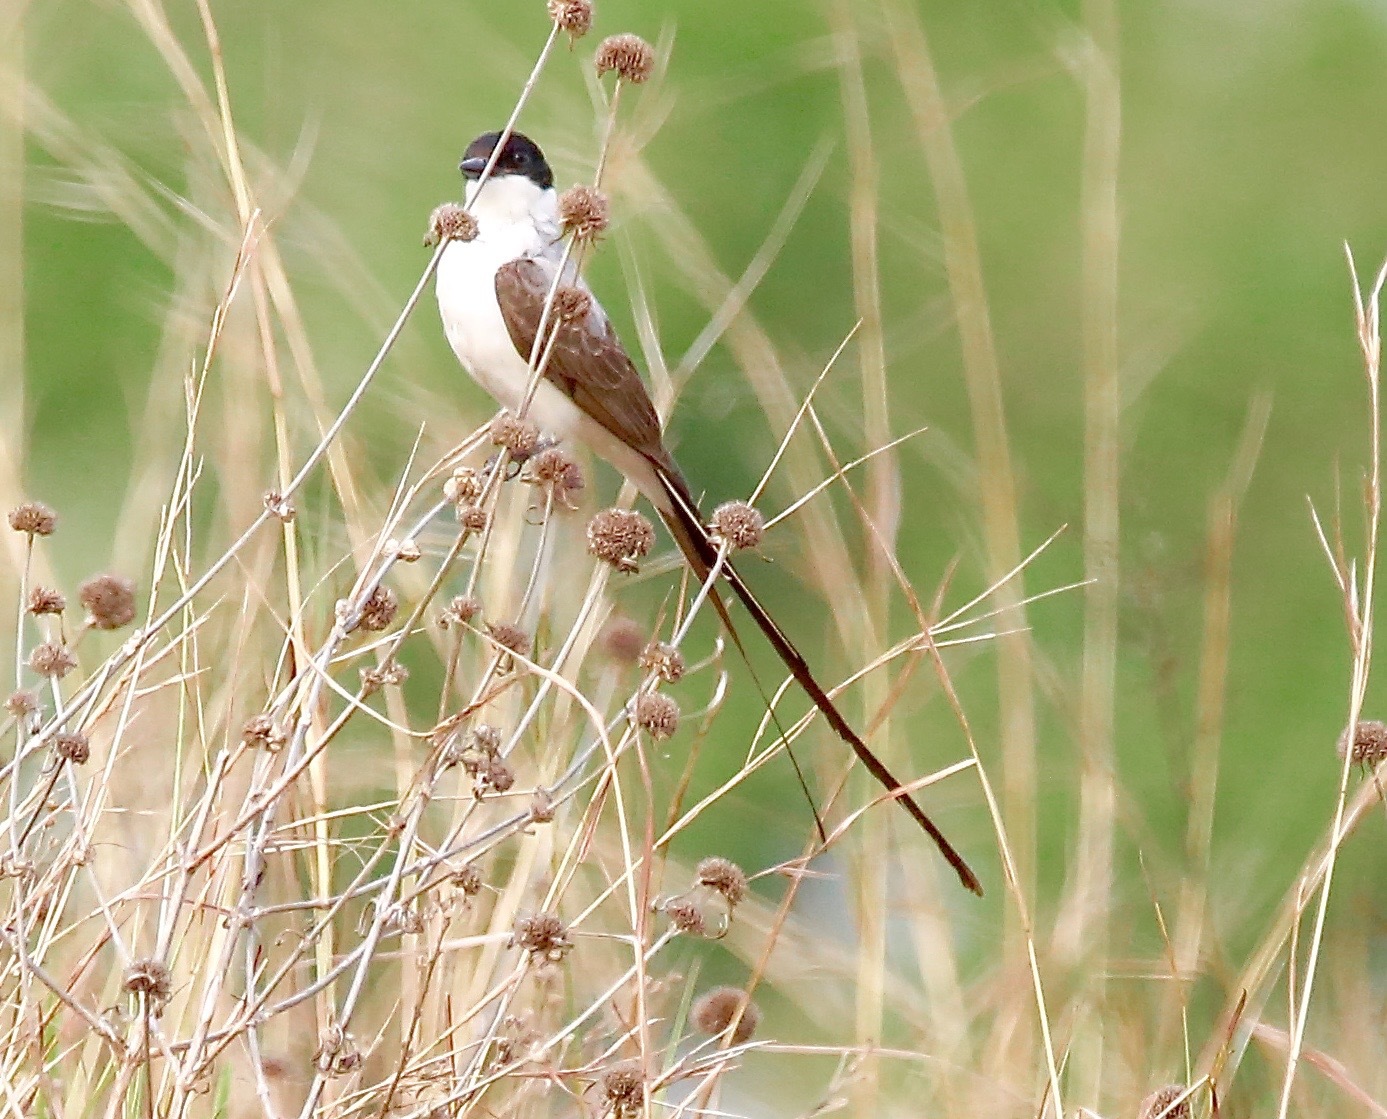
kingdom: Animalia
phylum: Chordata
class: Aves
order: Passeriformes
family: Tyrannidae
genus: Tyrannus
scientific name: Tyrannus savana
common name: Fork-tailed flycatcher
